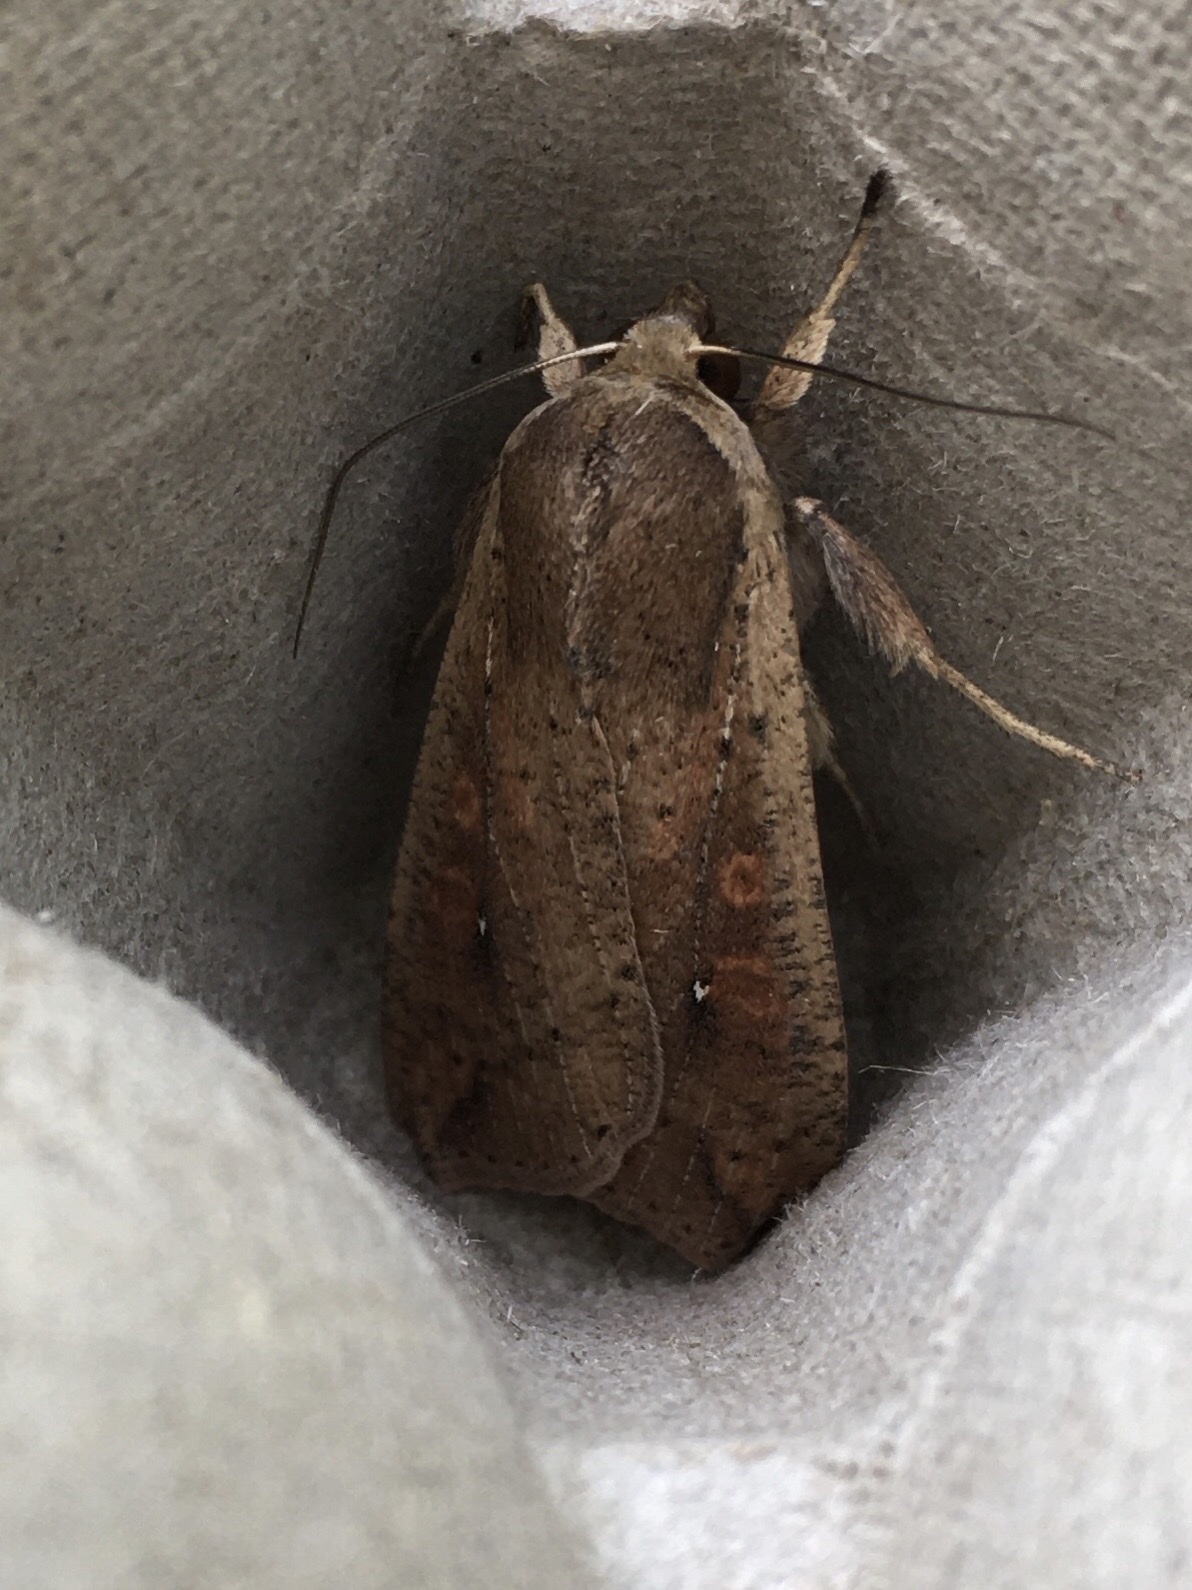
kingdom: Animalia
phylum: Arthropoda
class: Insecta
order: Lepidoptera
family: Noctuidae
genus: Mythimna
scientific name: Mythimna unipuncta
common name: White-speck
